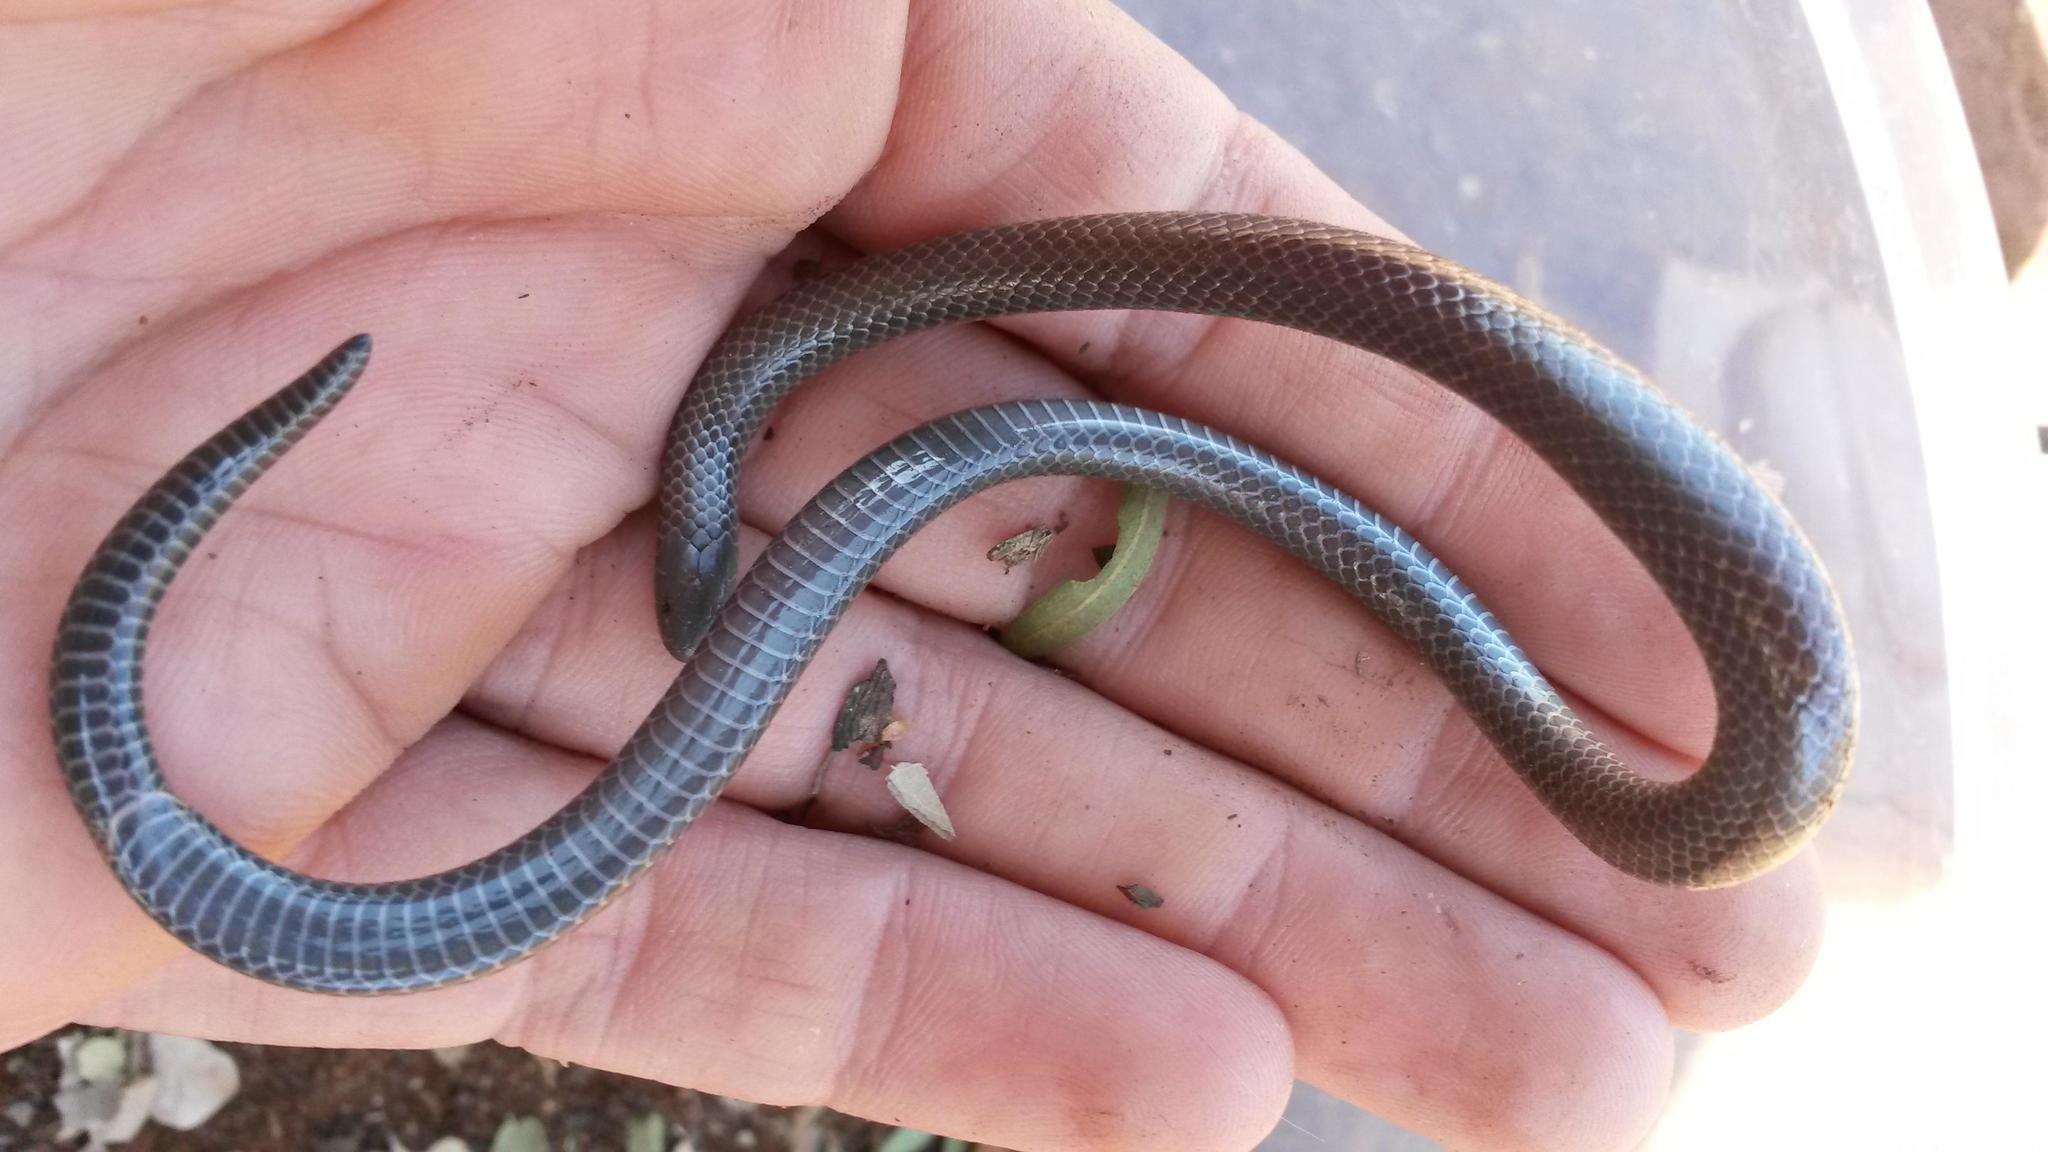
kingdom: Animalia
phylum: Chordata
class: Squamata
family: Atractaspididae
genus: Amblyodipsas
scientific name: Amblyodipsas microphthalma
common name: Eastern purple-glossed snake
